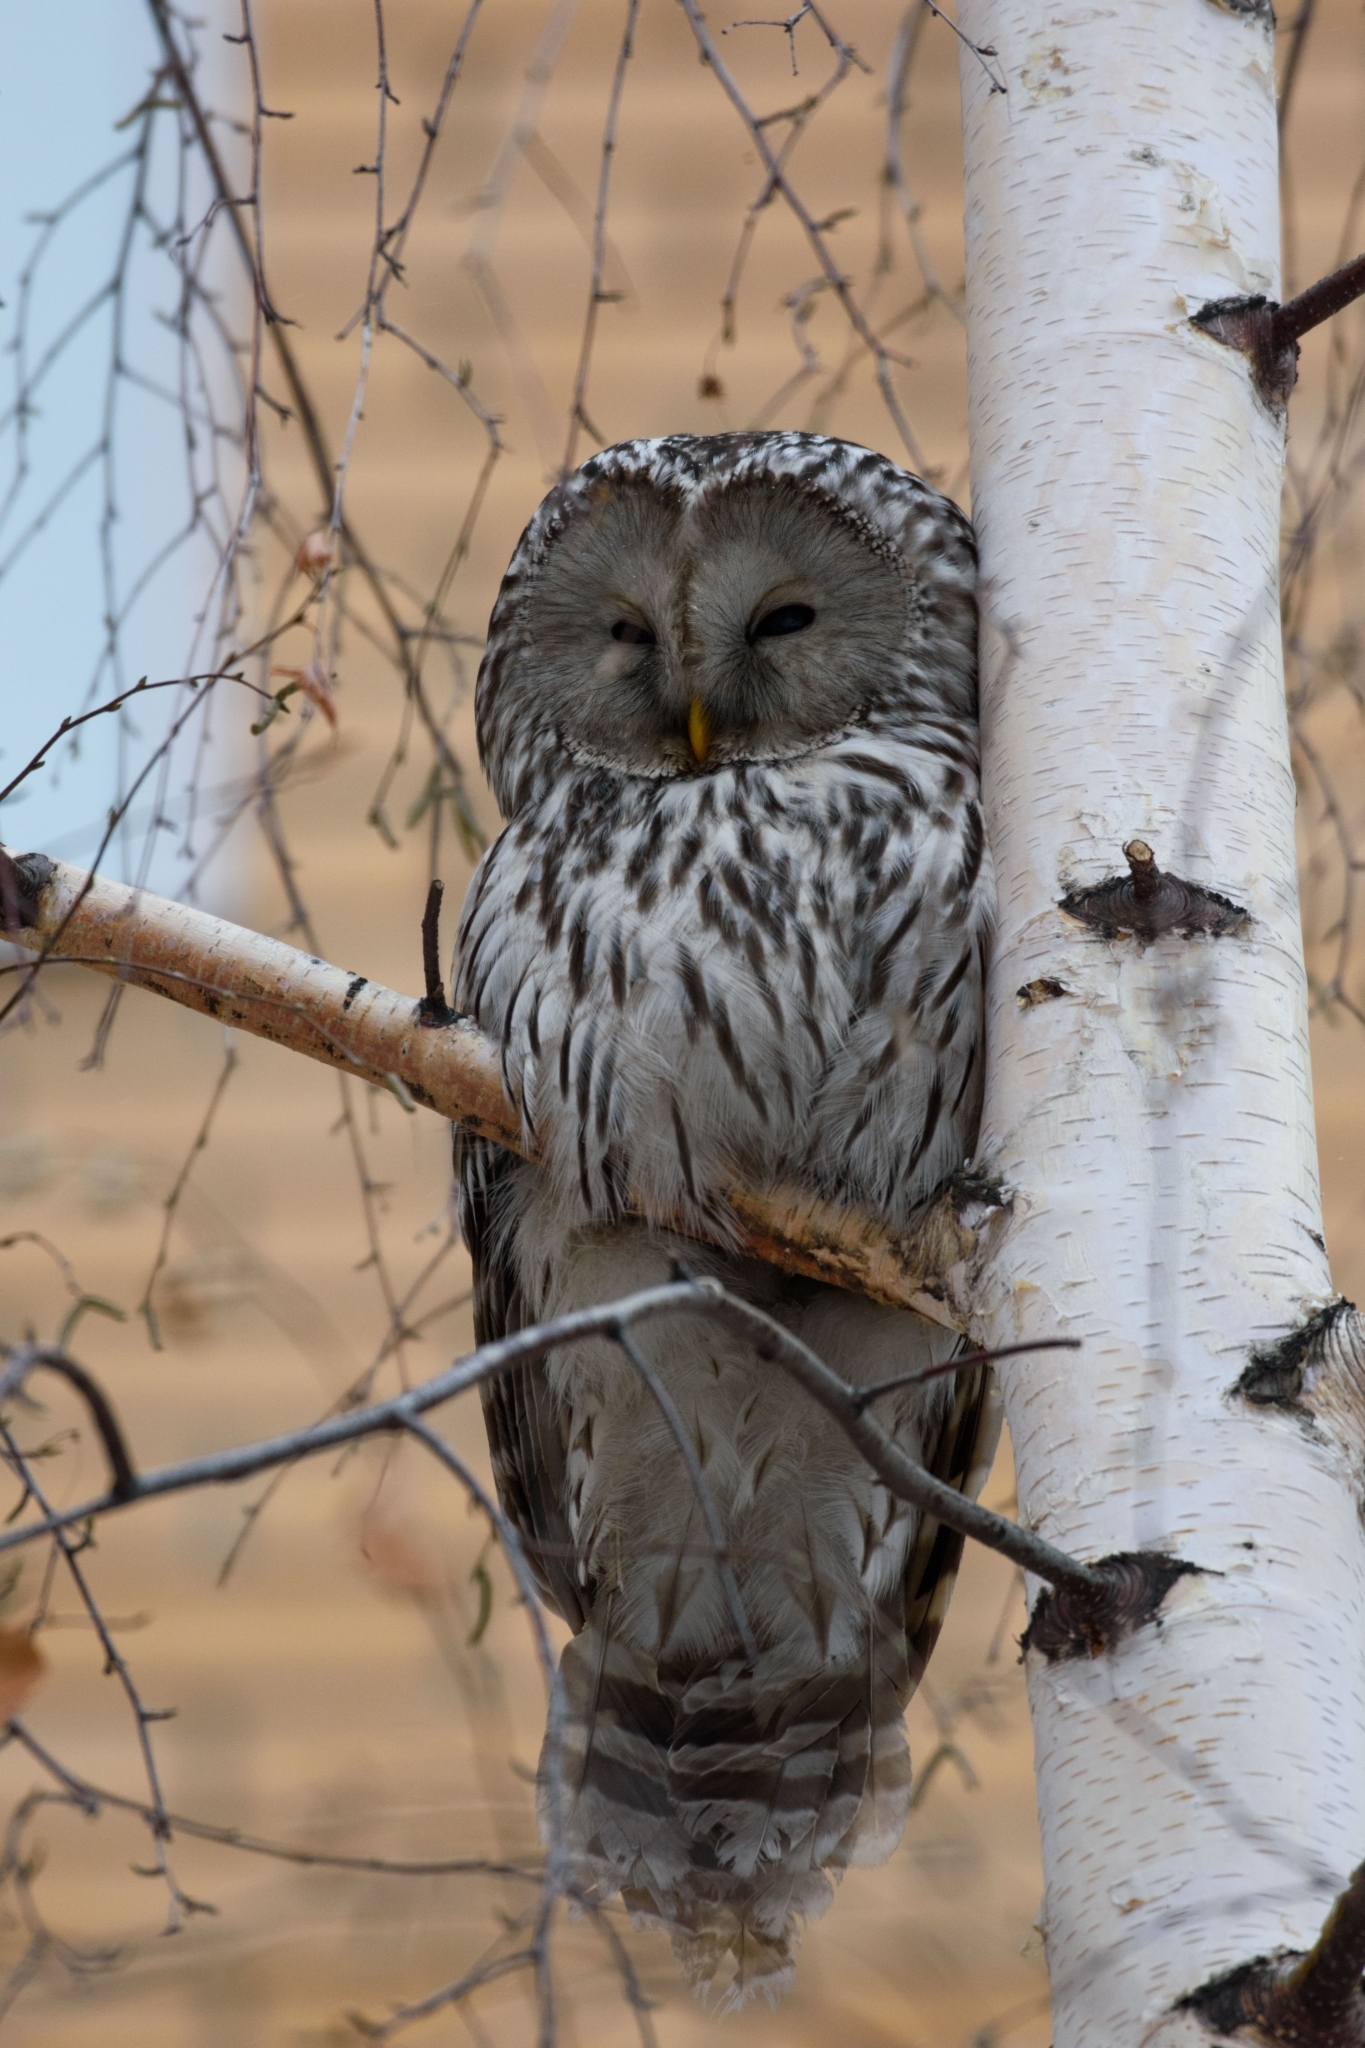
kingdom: Animalia
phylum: Chordata
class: Aves
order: Strigiformes
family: Strigidae
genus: Strix
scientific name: Strix uralensis
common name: Ural owl
